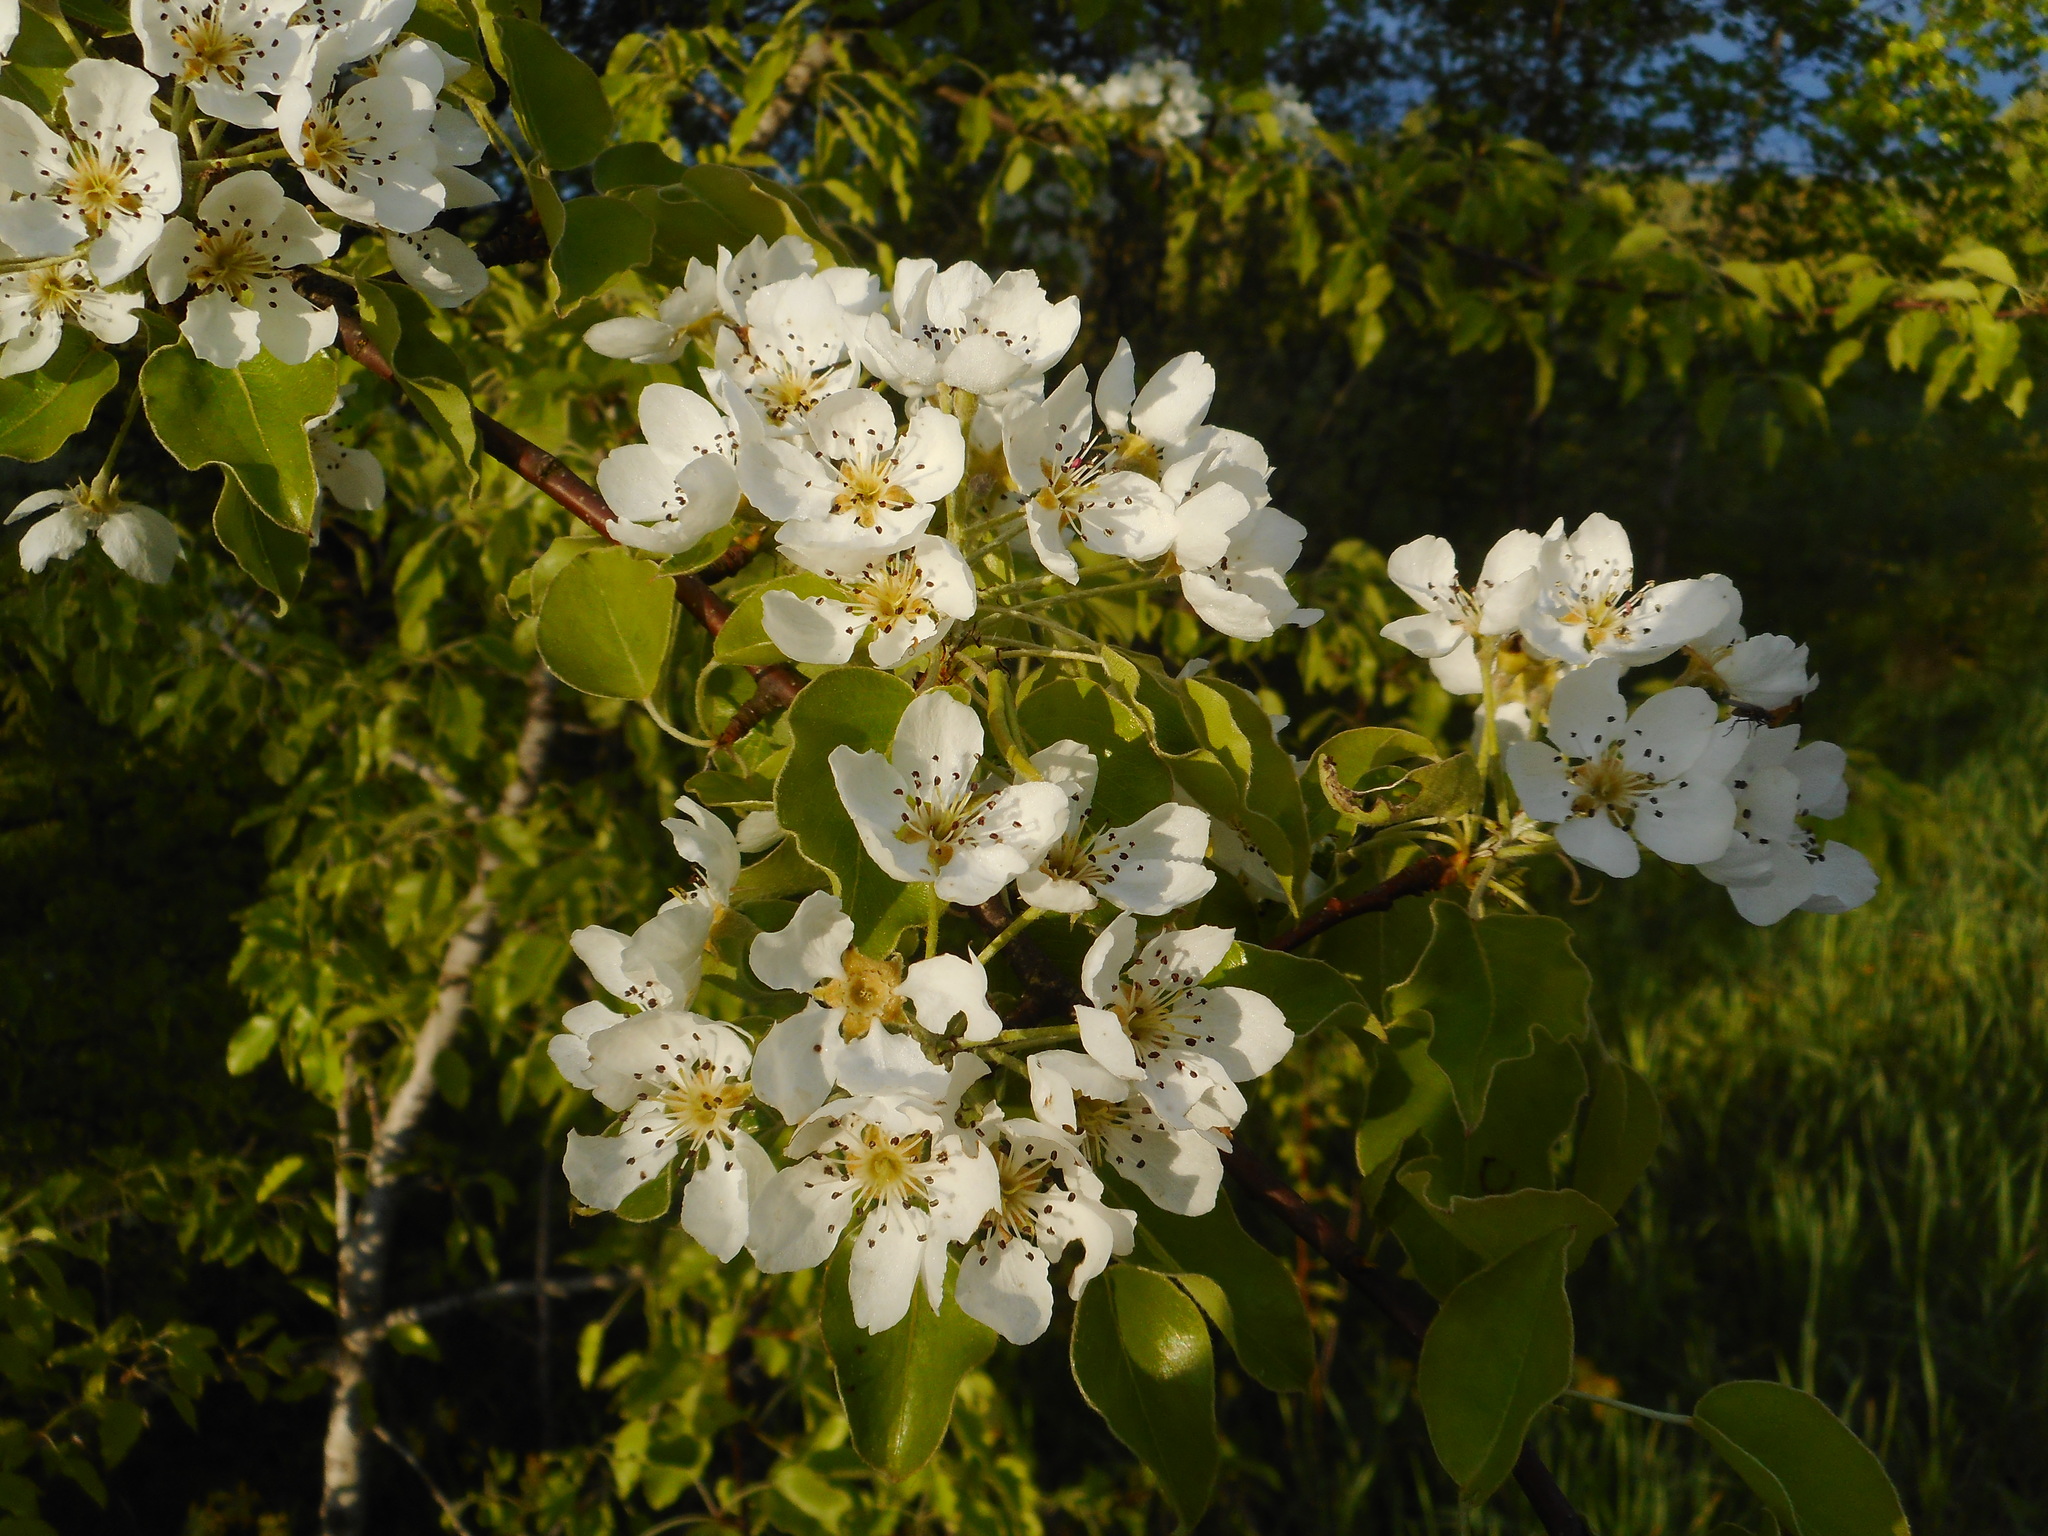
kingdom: Plantae
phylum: Tracheophyta
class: Magnoliopsida
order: Rosales
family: Rosaceae
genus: Pyrus
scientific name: Pyrus communis
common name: Pear
